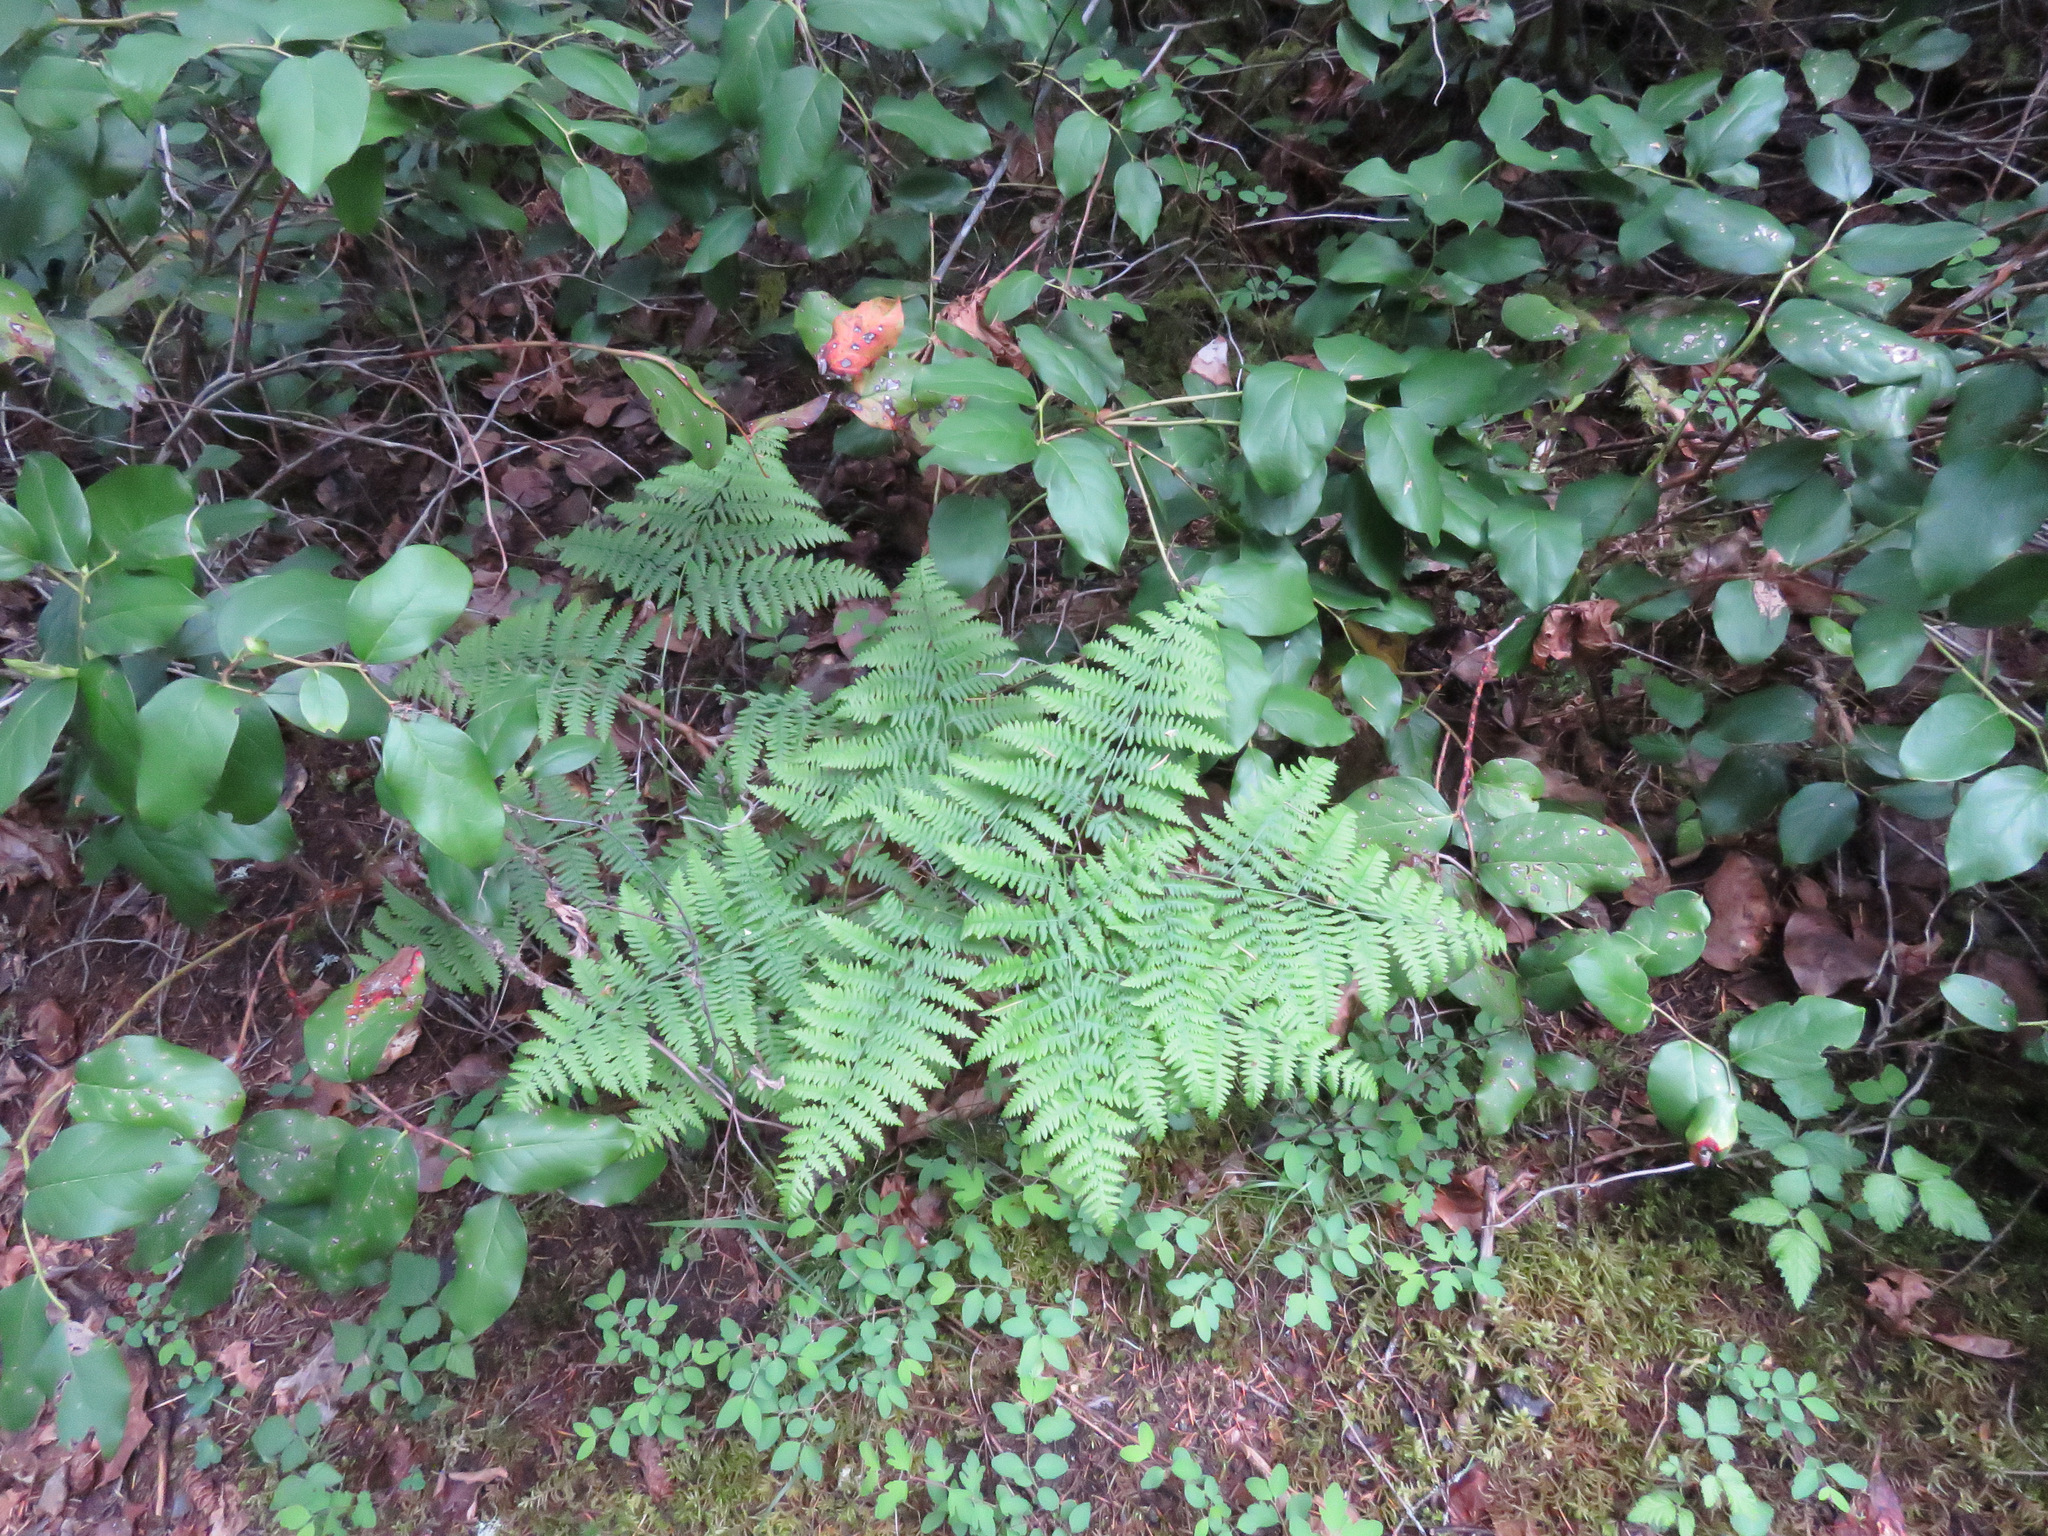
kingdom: Plantae
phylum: Tracheophyta
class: Polypodiopsida
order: Polypodiales
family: Dennstaedtiaceae
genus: Pteridium
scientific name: Pteridium aquilinum
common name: Bracken
